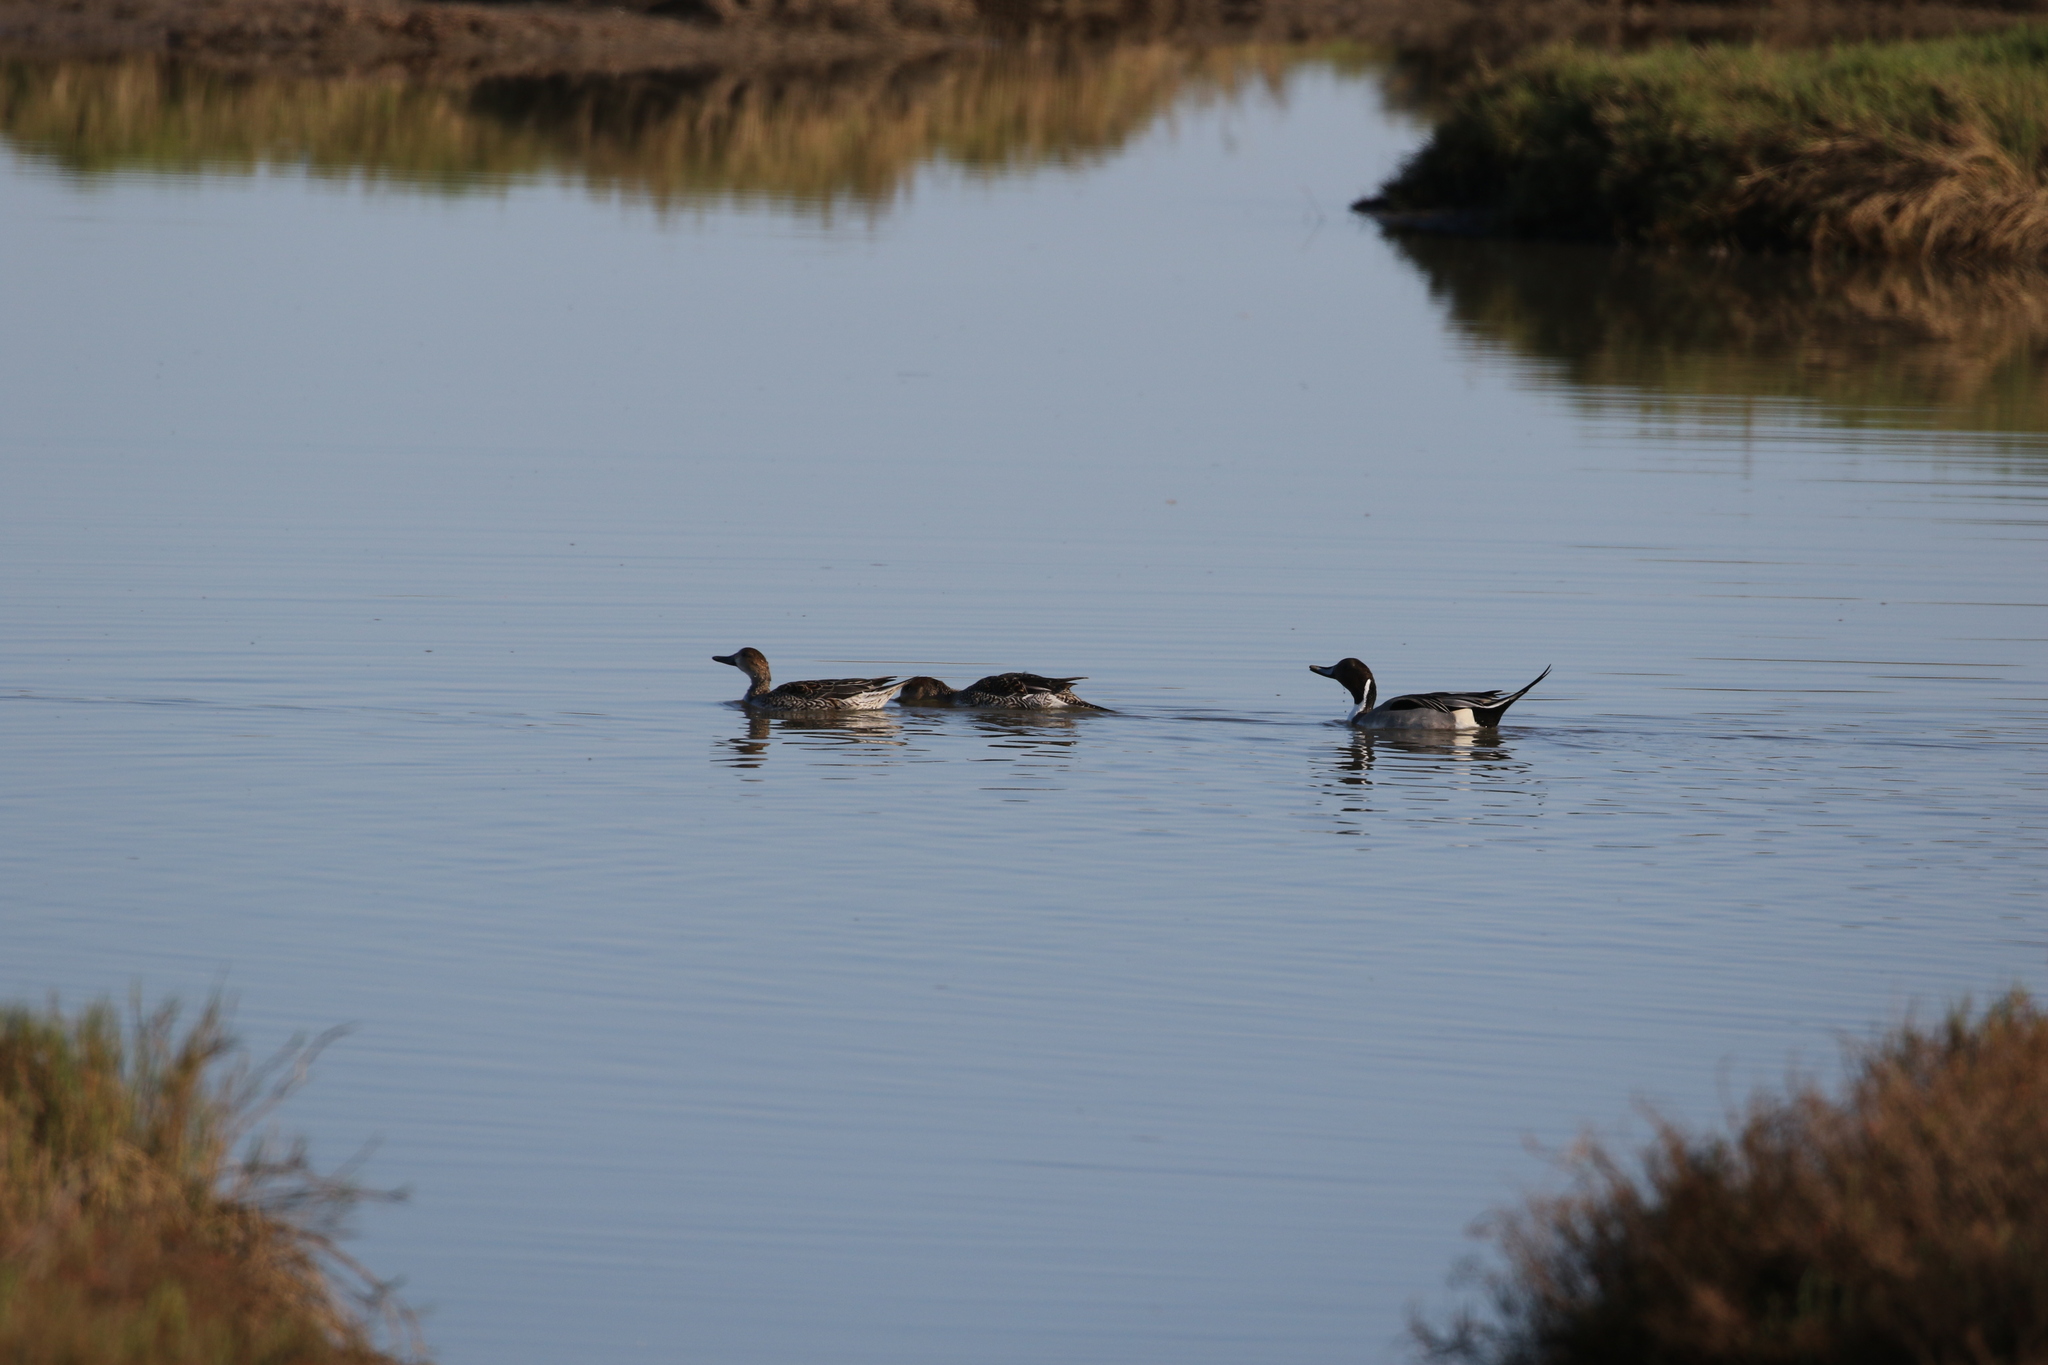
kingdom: Animalia
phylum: Chordata
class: Aves
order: Anseriformes
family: Anatidae
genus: Anas
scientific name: Anas acuta
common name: Northern pintail
